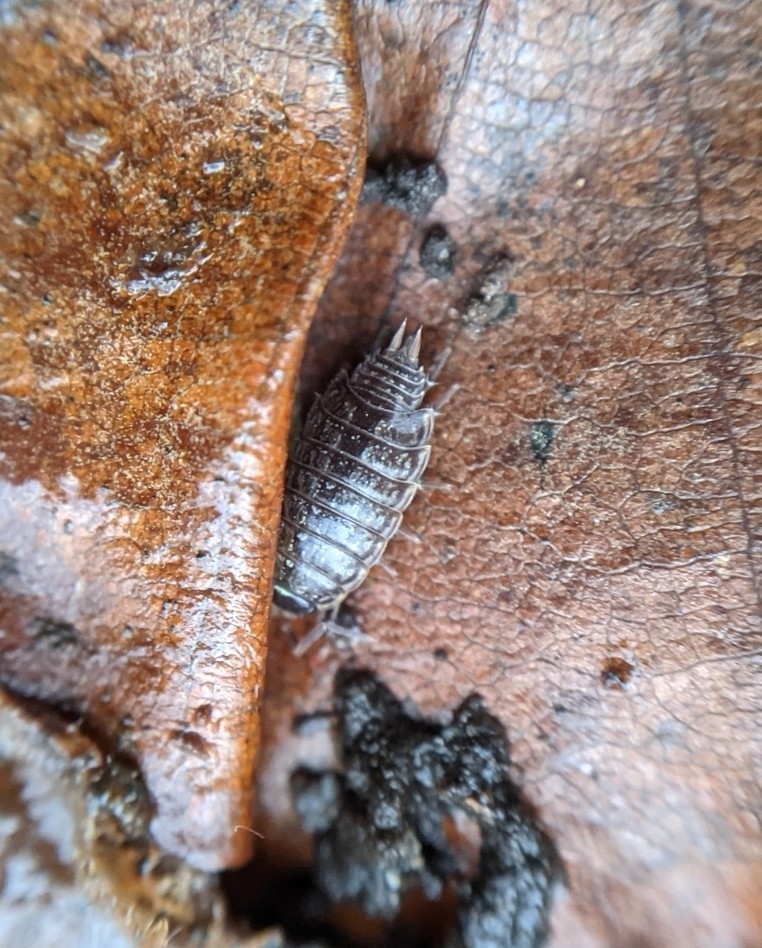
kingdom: Animalia
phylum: Arthropoda
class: Malacostraca
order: Isopoda
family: Philosciidae
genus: Philoscia
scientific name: Philoscia muscorum
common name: Common striped woodlouse
